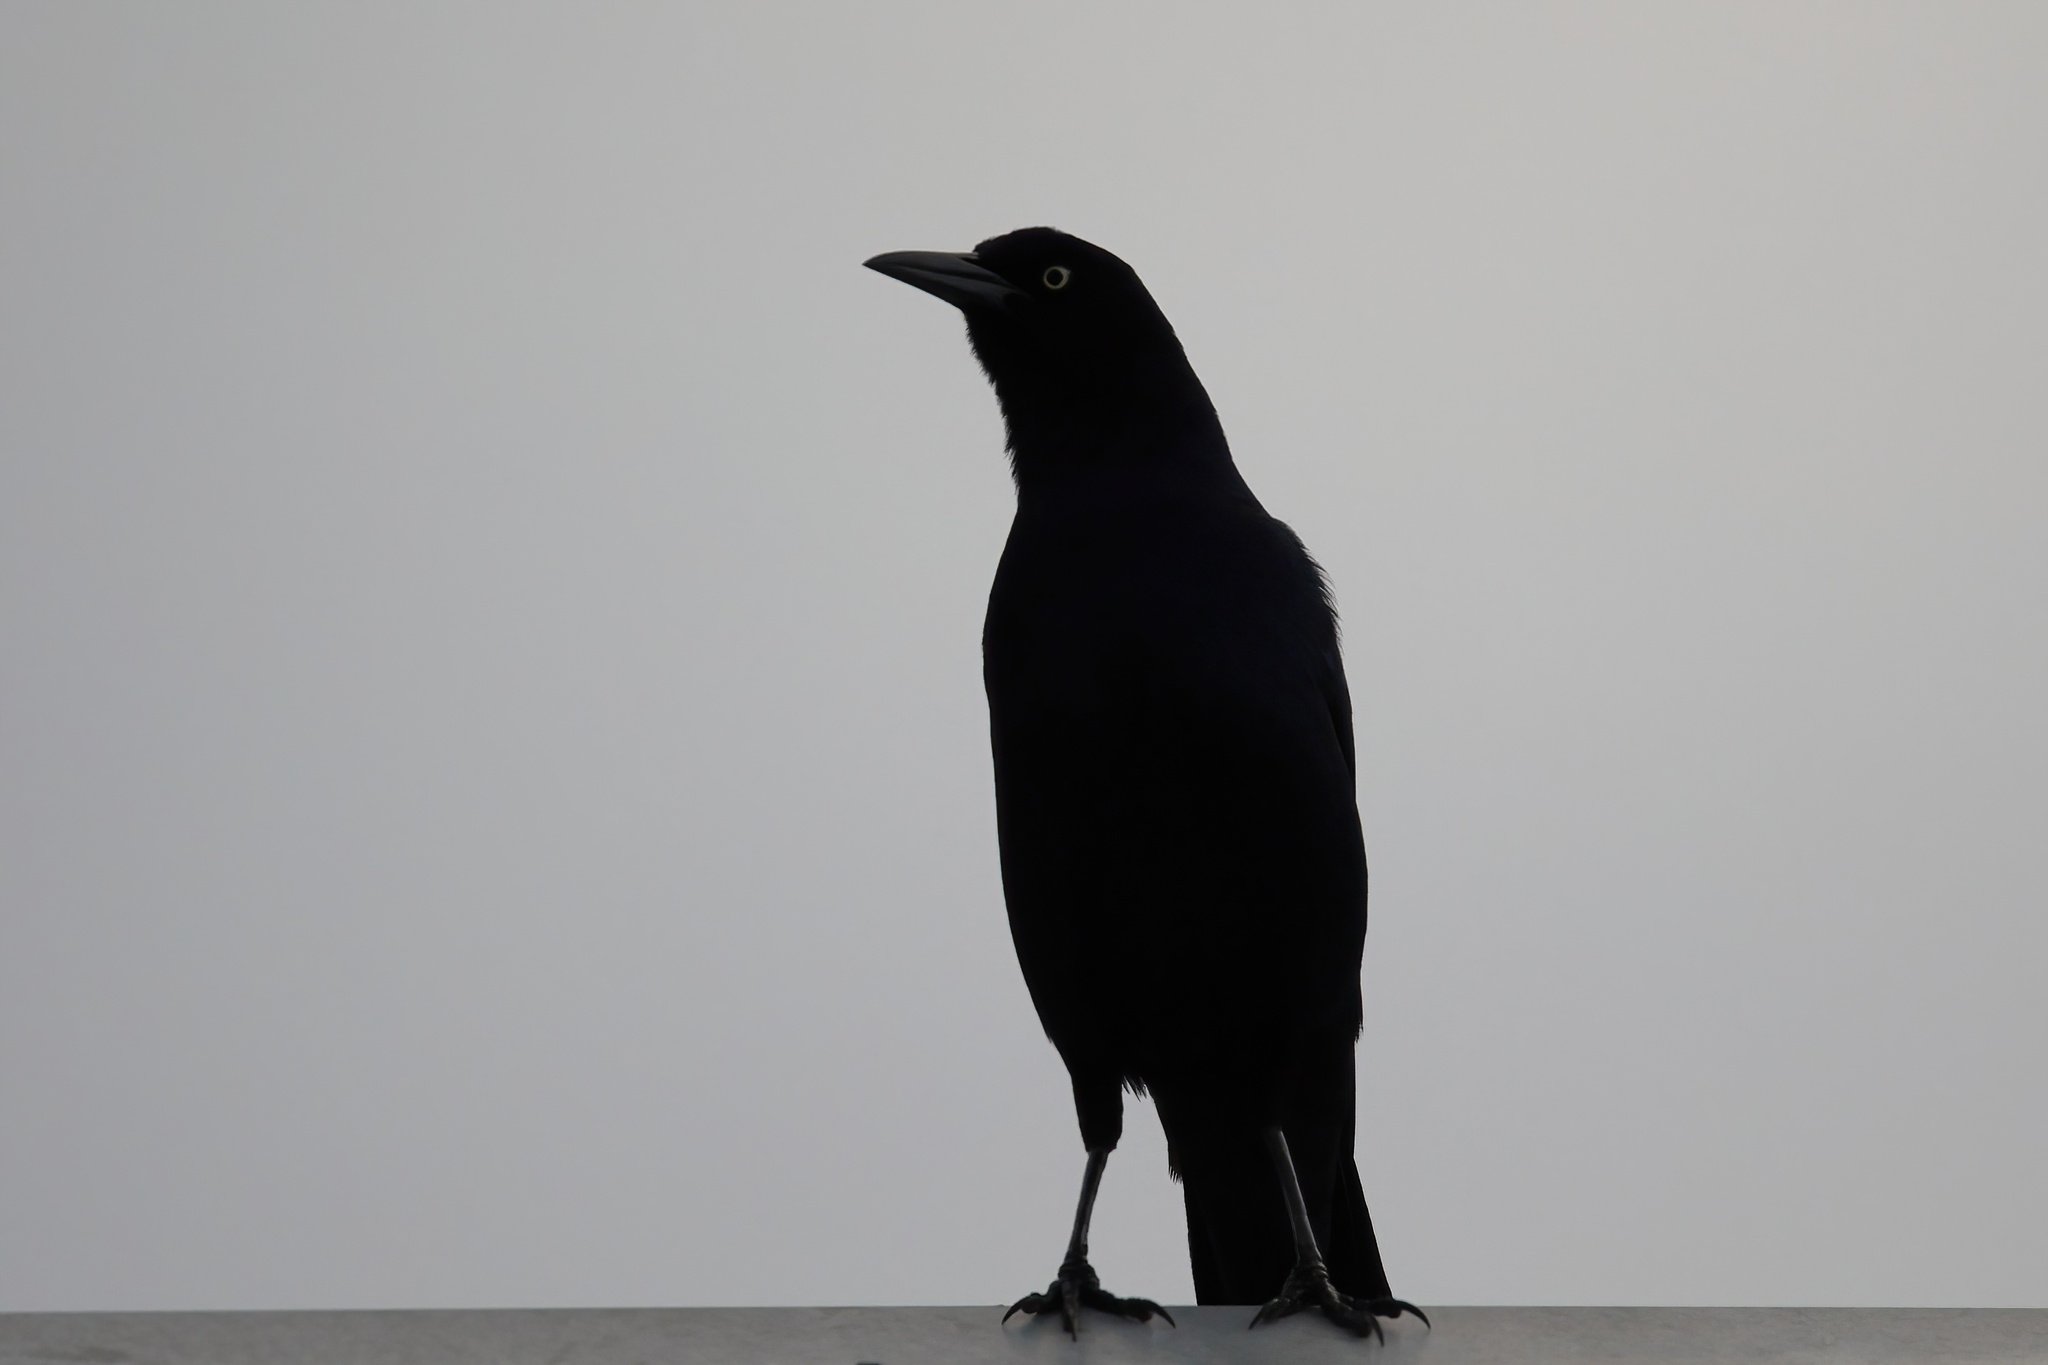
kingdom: Animalia
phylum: Chordata
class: Aves
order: Passeriformes
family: Icteridae
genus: Quiscalus
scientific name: Quiscalus major
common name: Boat-tailed grackle
